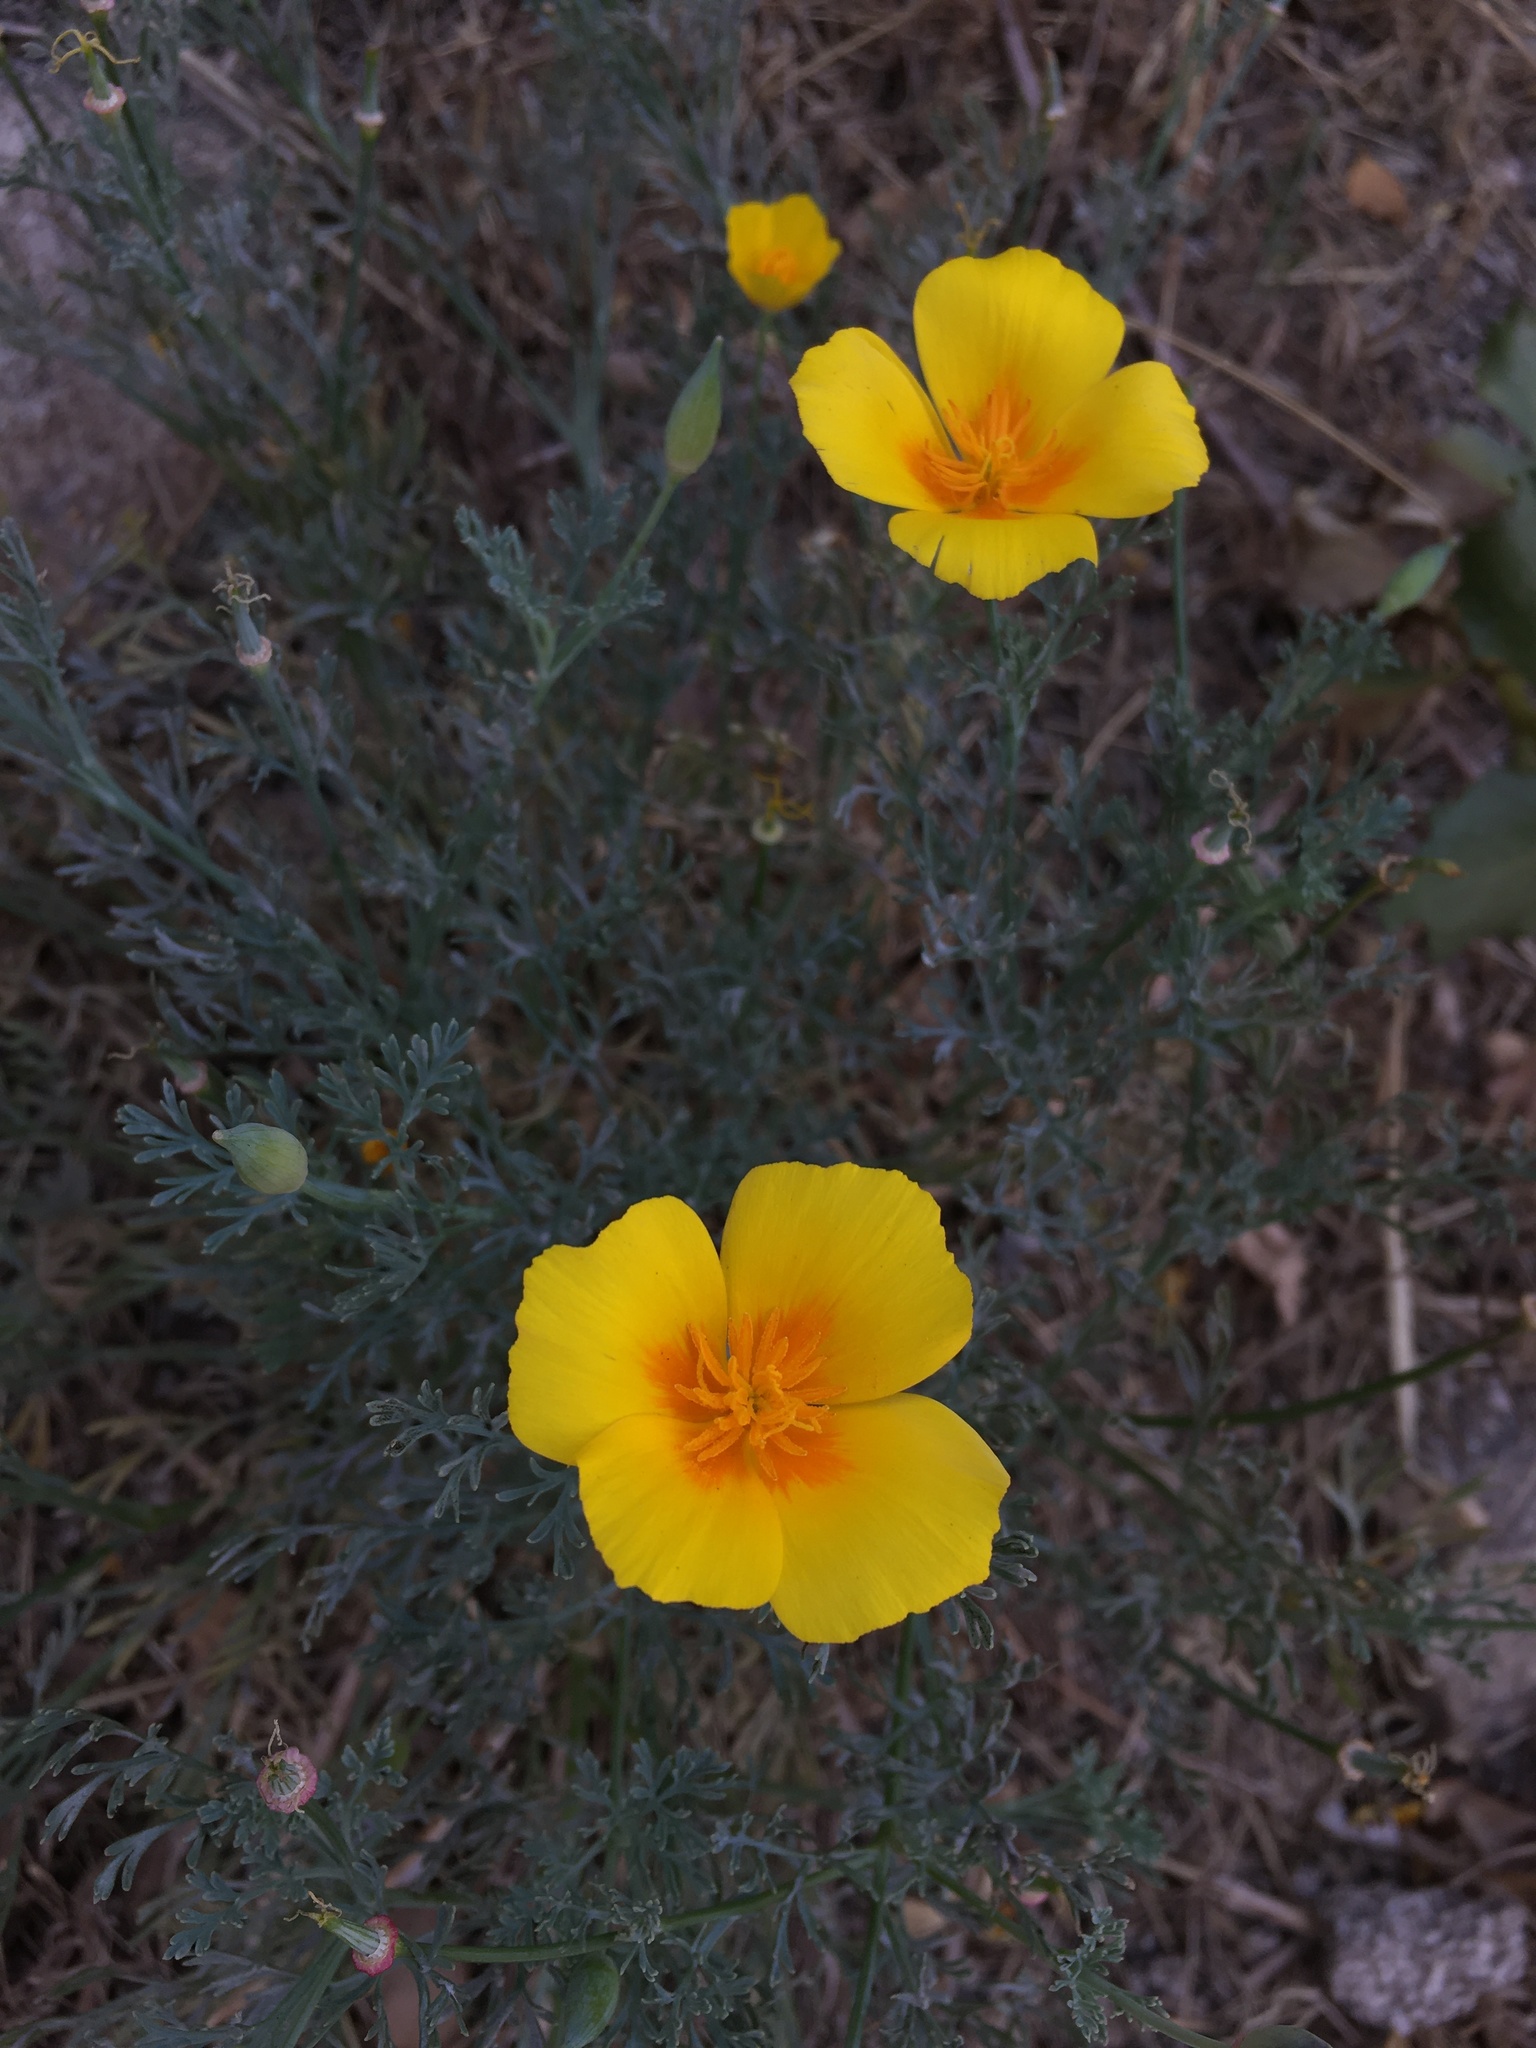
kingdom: Plantae
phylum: Tracheophyta
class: Magnoliopsida
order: Ranunculales
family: Papaveraceae
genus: Eschscholzia
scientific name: Eschscholzia californica
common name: California poppy
